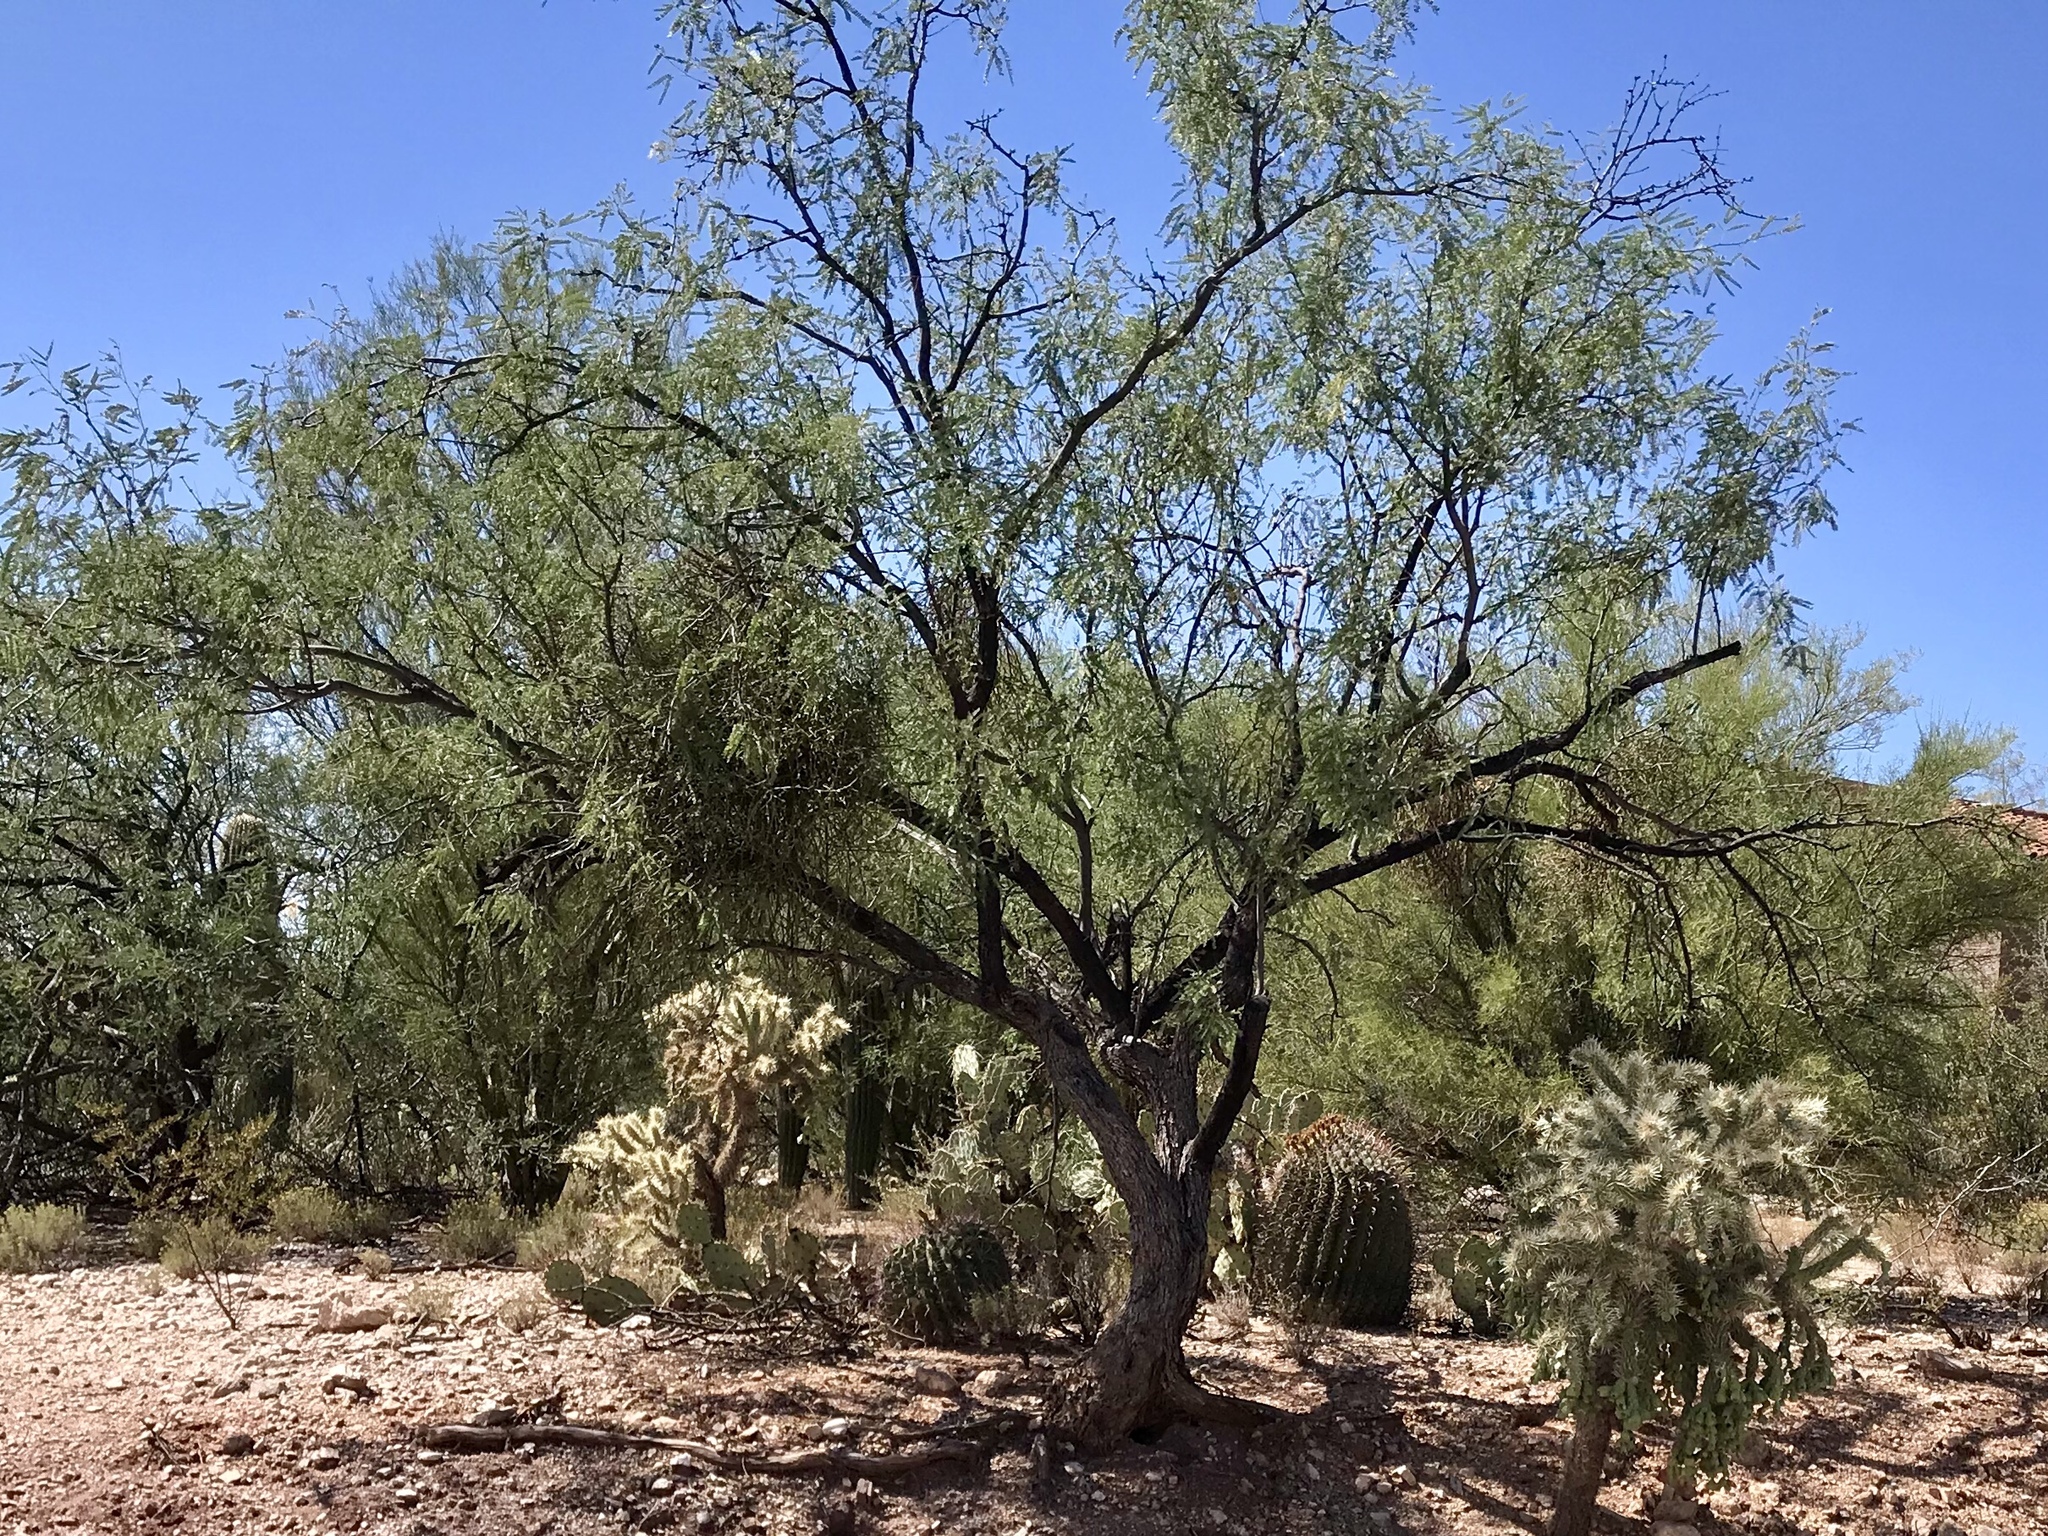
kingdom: Plantae
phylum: Tracheophyta
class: Magnoliopsida
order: Fabales
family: Fabaceae
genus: Prosopis
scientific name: Prosopis velutina
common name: Velvet mesquite
